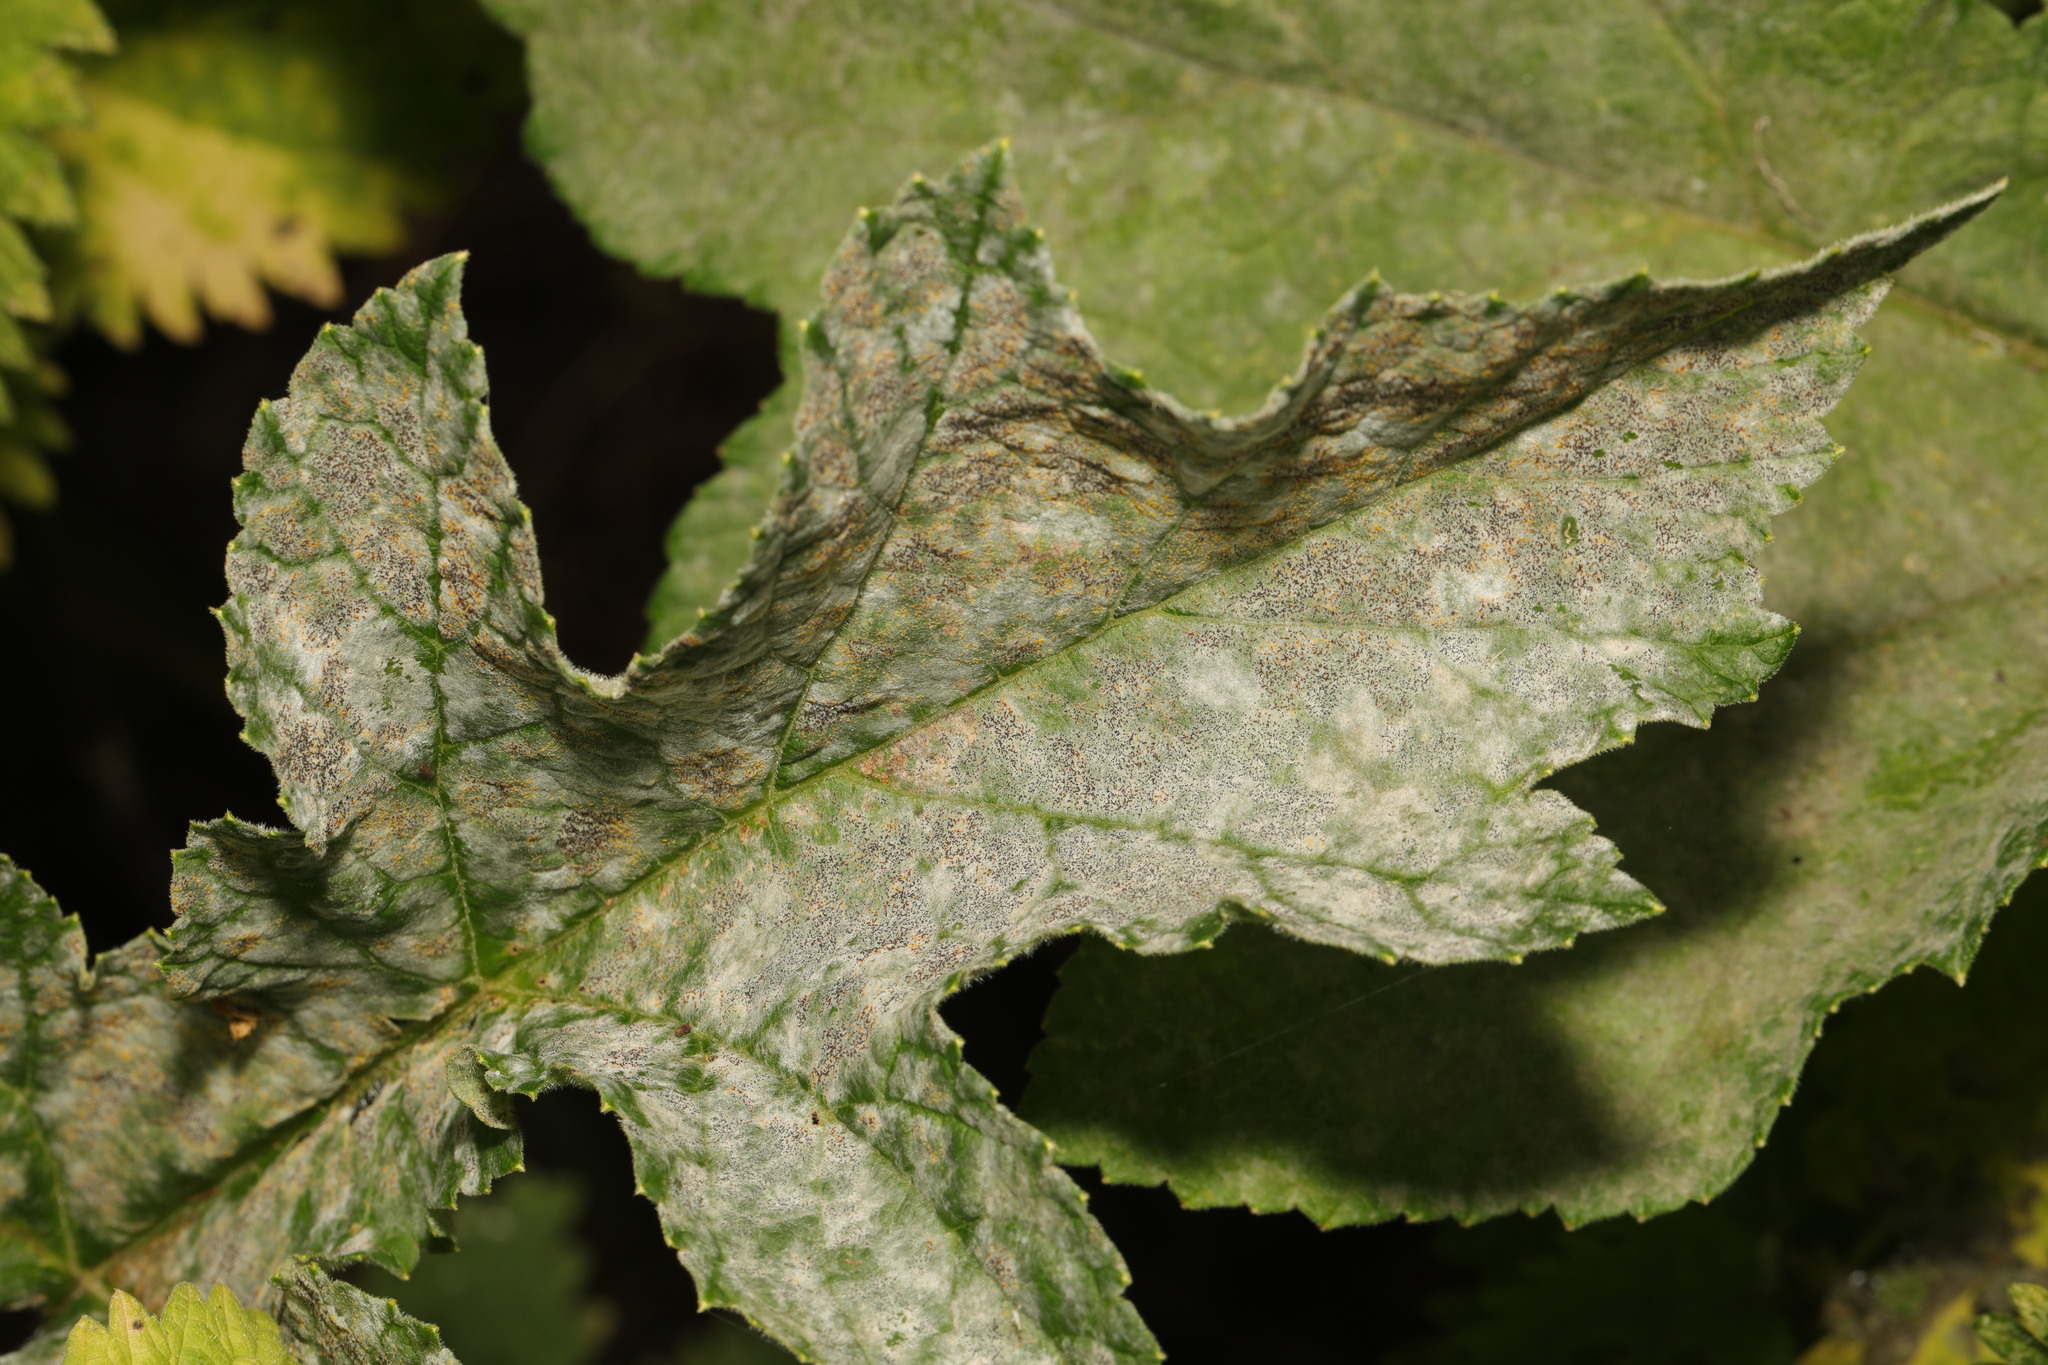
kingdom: Fungi
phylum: Ascomycota
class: Leotiomycetes
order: Helotiales
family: Erysiphaceae
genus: Erysiphe
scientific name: Erysiphe heraclei
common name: Umbellifer mildew
